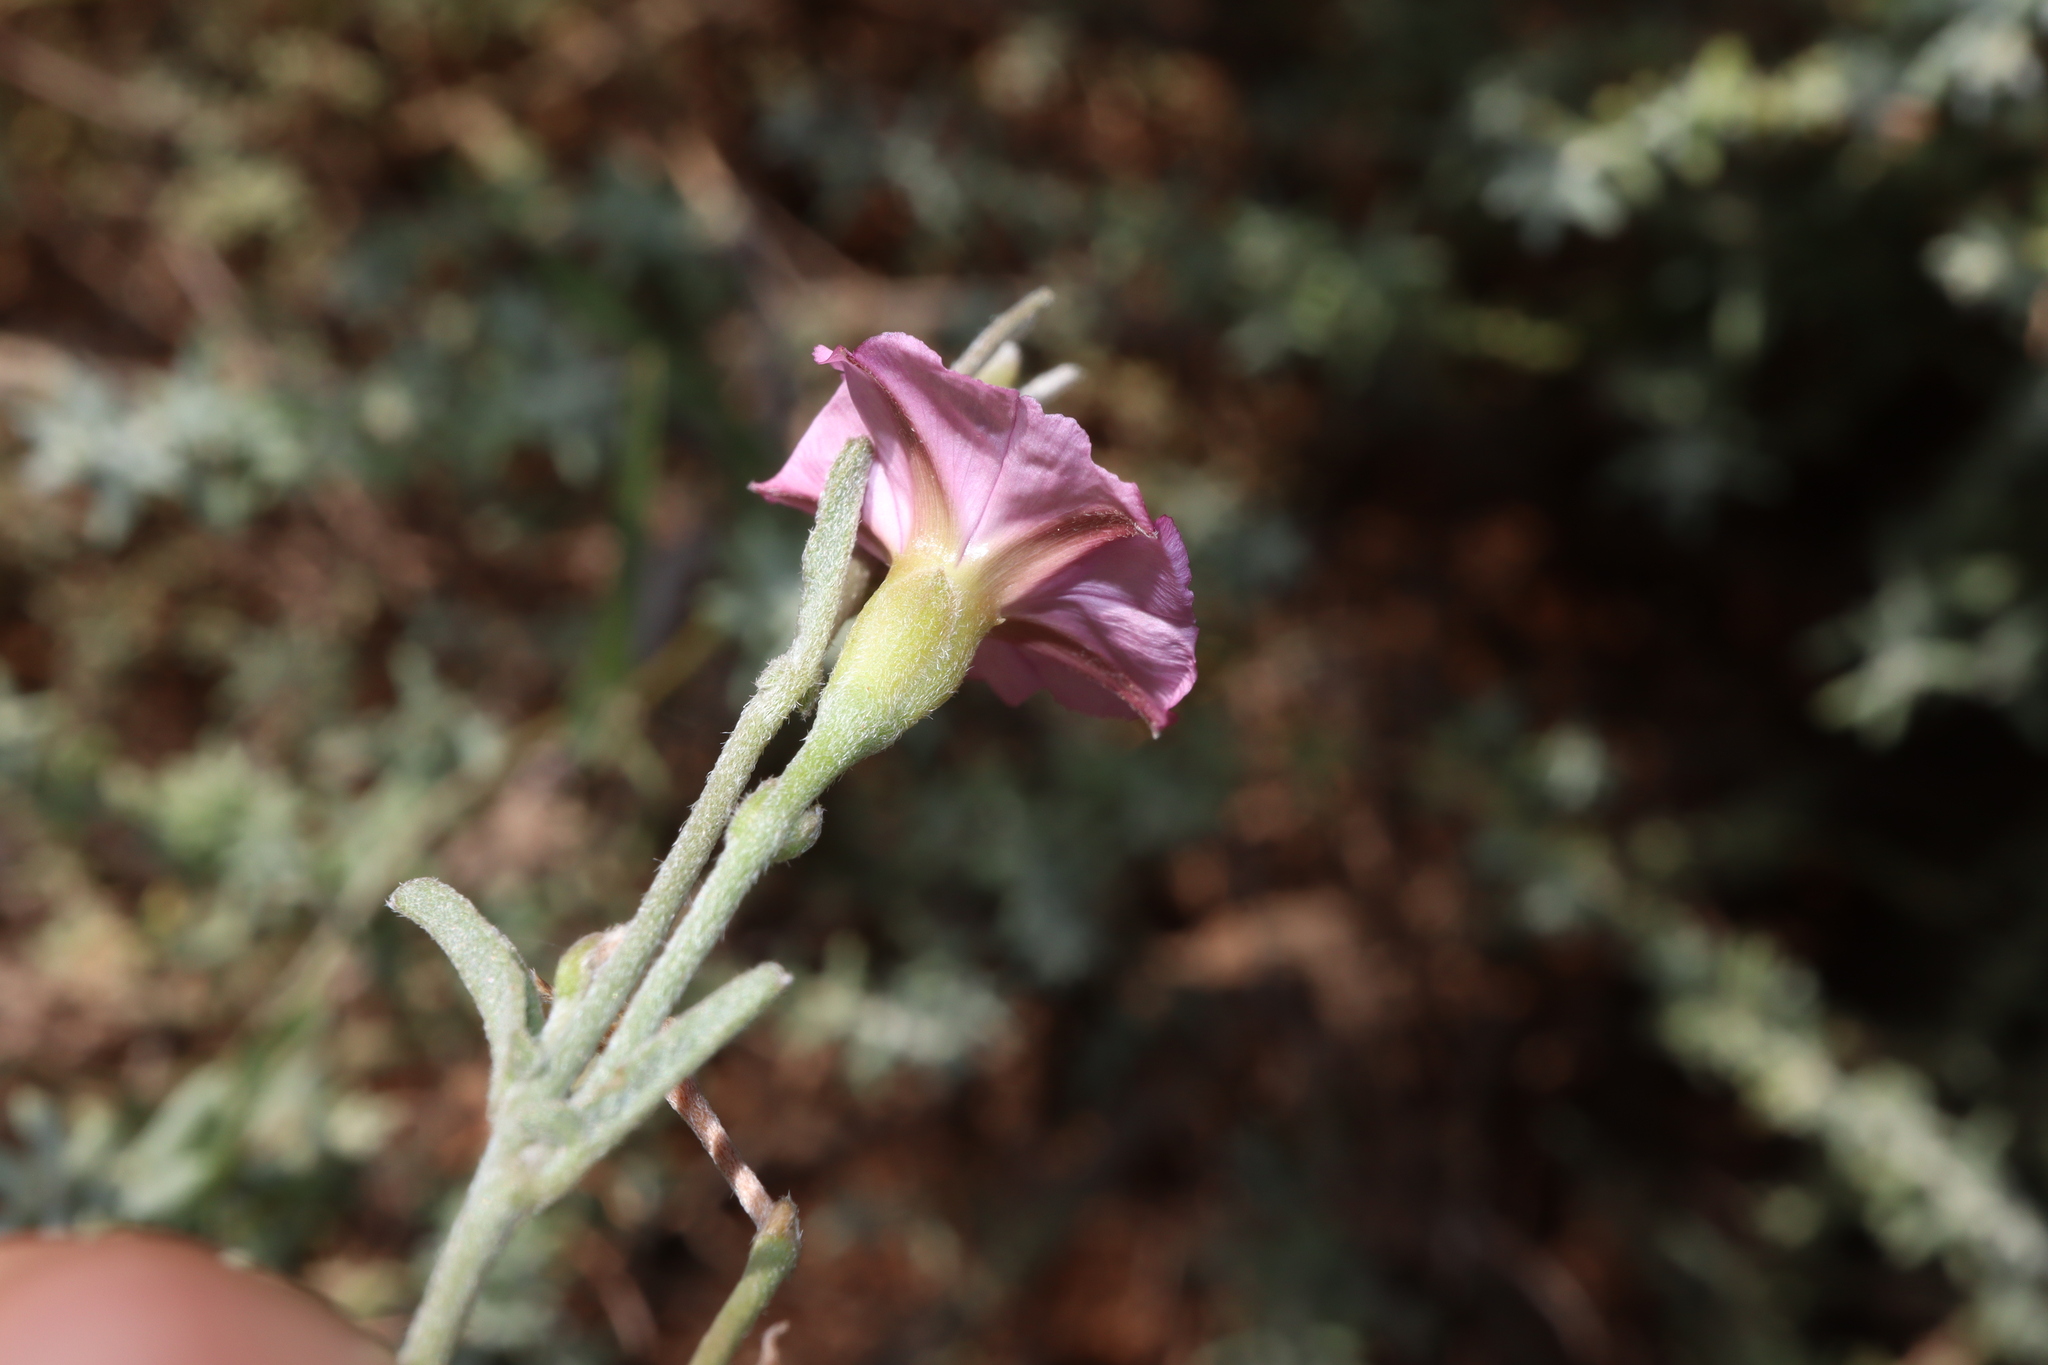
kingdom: Plantae
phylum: Tracheophyta
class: Magnoliopsida
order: Solanales
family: Convolvulaceae
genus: Convolvulus
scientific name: Convolvulus remotus
